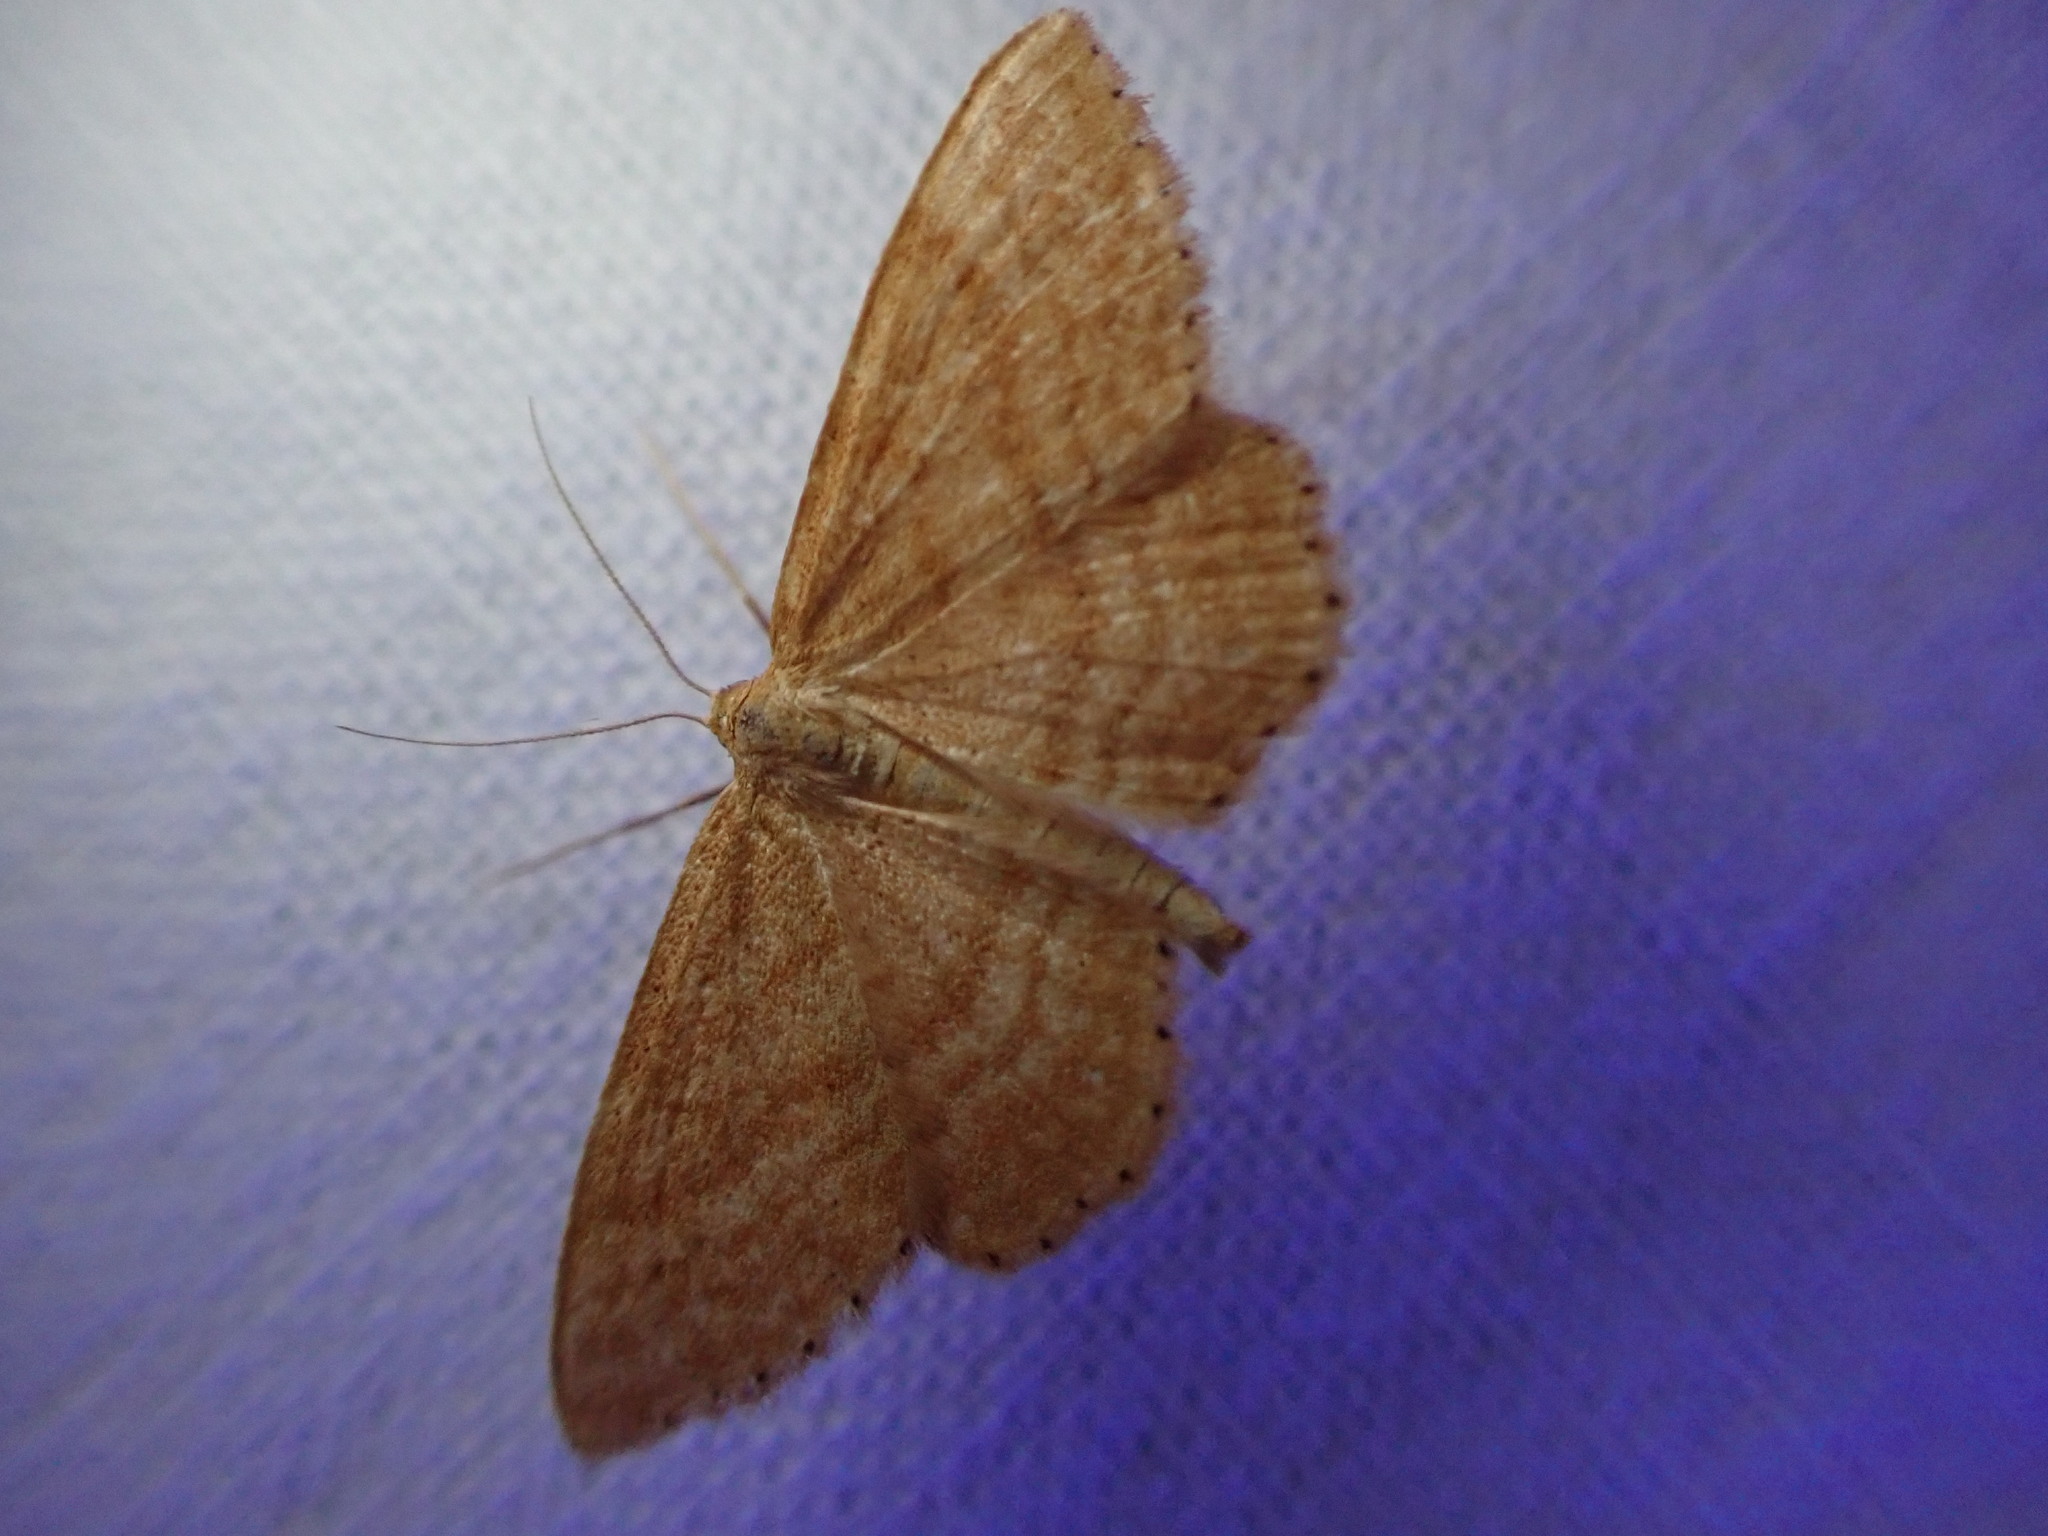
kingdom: Animalia
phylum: Arthropoda
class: Insecta
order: Lepidoptera
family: Geometridae
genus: Idaea
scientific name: Idaea ochrata
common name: Bright wave
